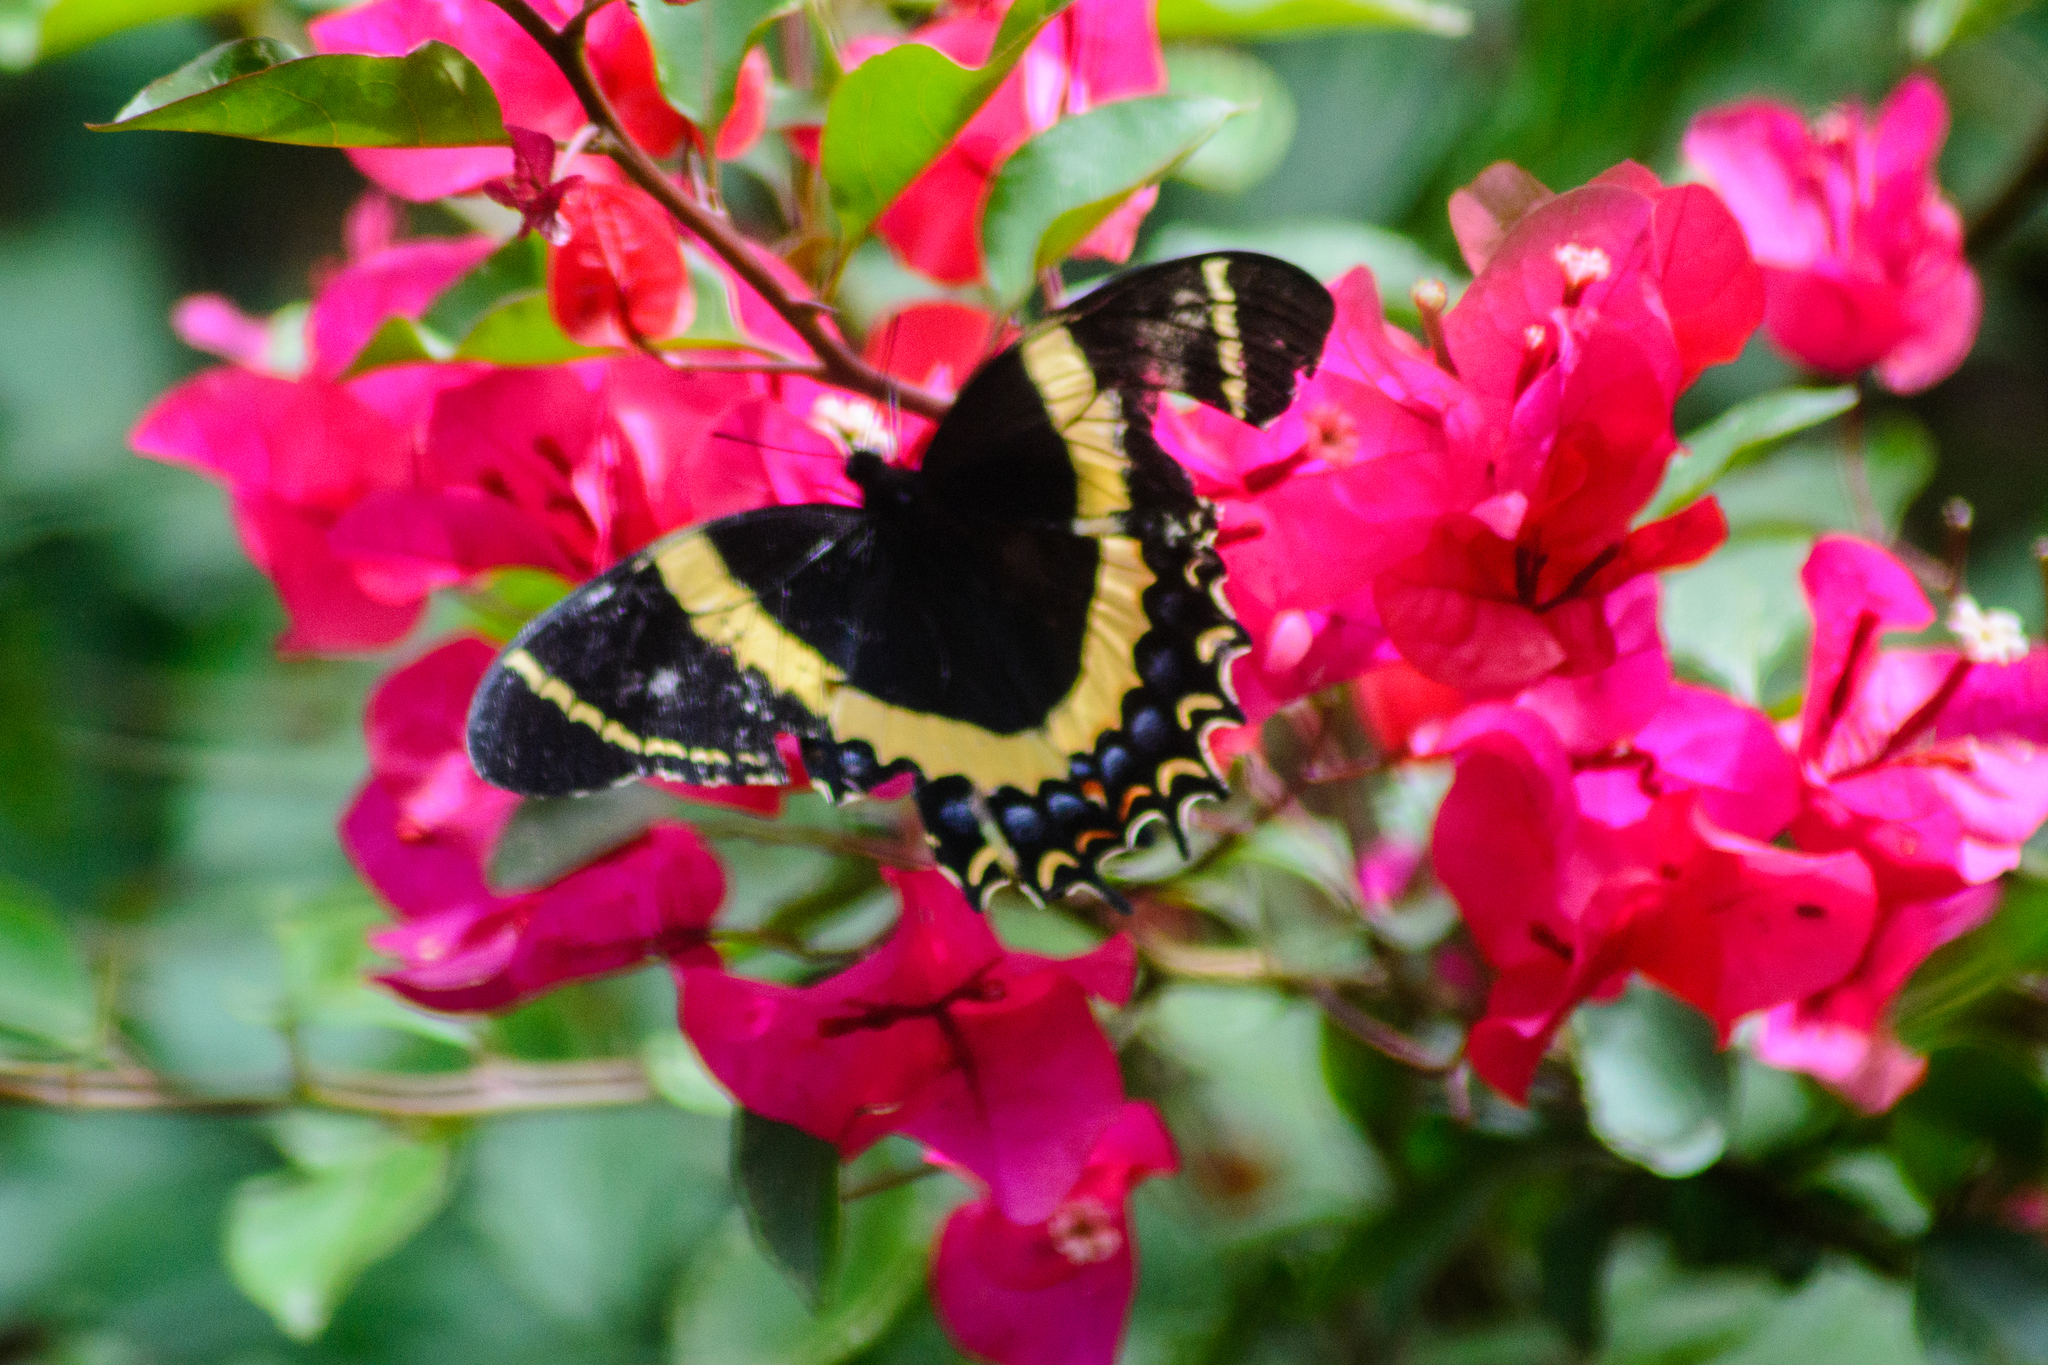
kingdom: Animalia
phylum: Arthropoda
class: Insecta
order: Lepidoptera
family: Papilionidae
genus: Papilio
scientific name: Papilio garamas
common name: Magnificent swallowtail
